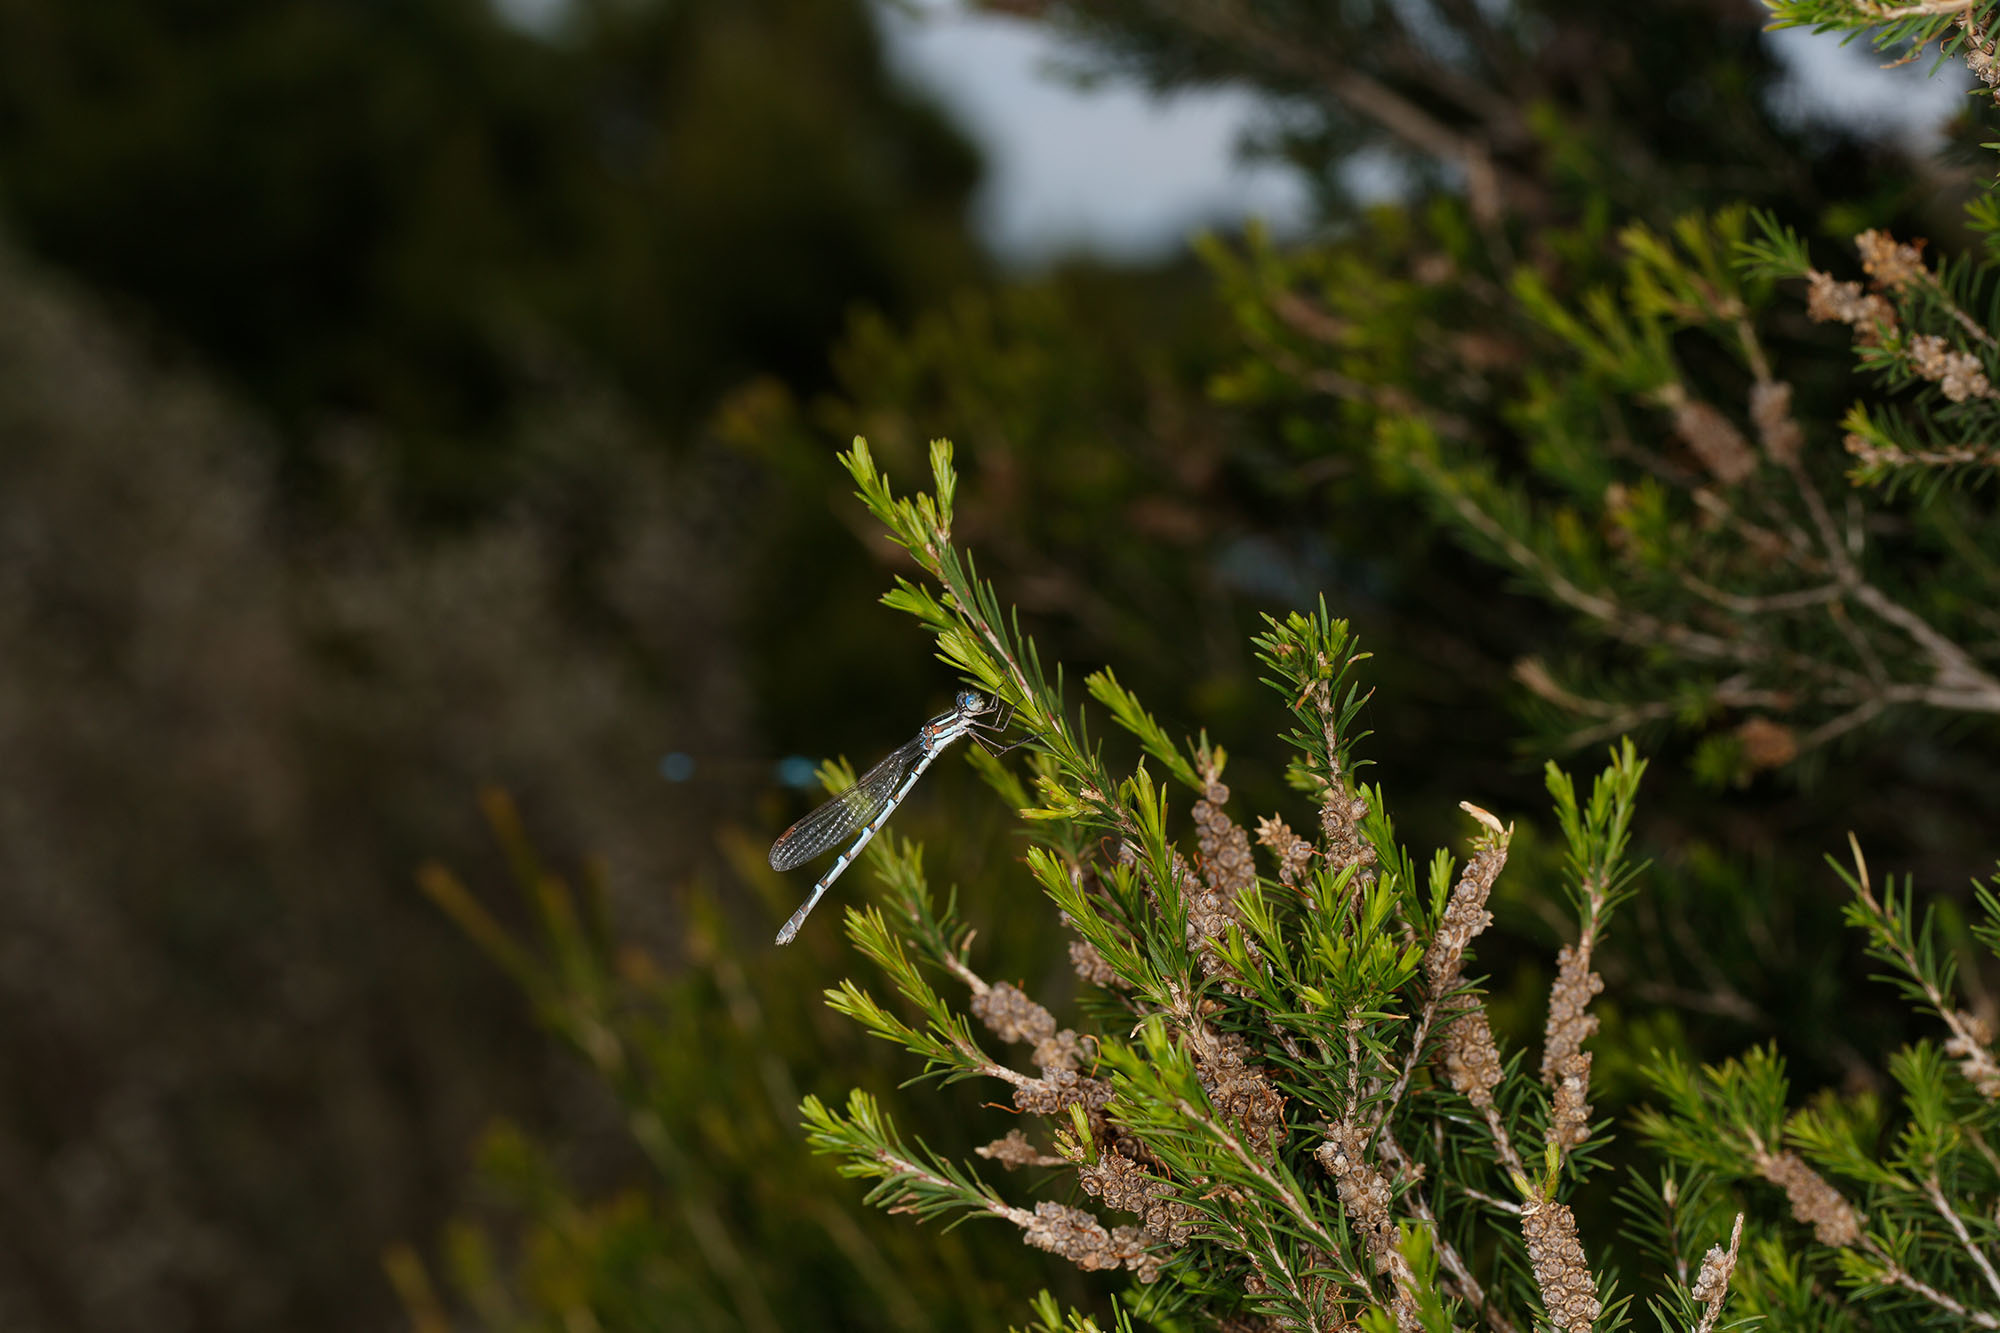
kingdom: Animalia
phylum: Arthropoda
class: Insecta
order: Odonata
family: Lestidae
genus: Austrolestes
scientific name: Austrolestes annulosus
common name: Blue ringtail
